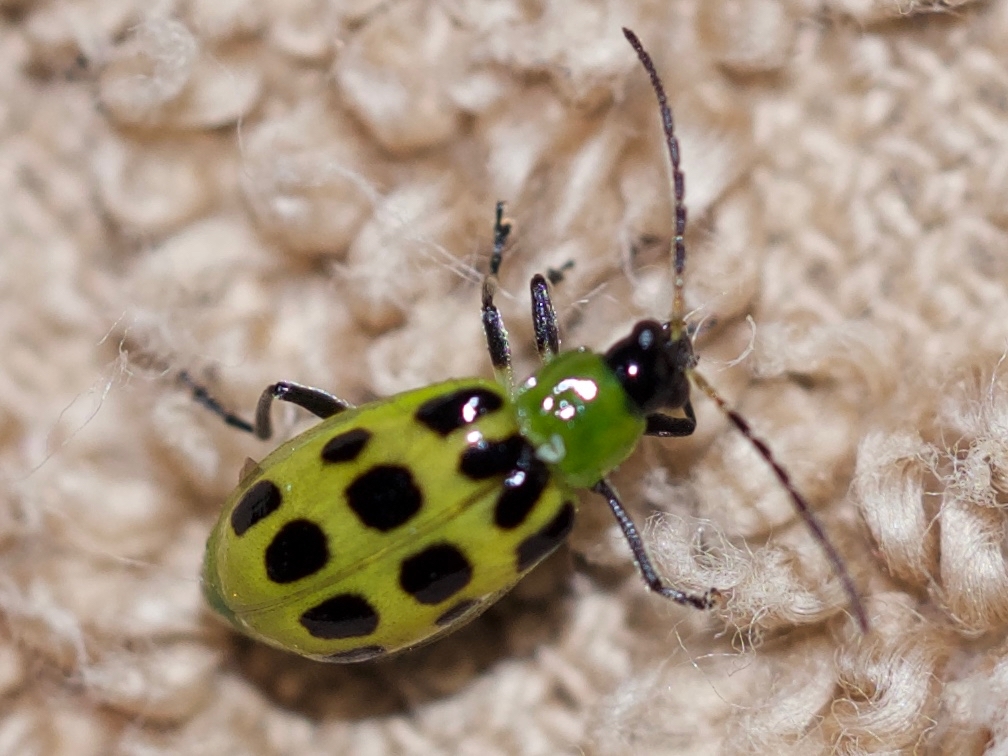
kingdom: Animalia
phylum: Arthropoda
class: Insecta
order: Coleoptera
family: Chrysomelidae
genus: Diabrotica
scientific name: Diabrotica undecimpunctata
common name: Spotted cucumber beetle
